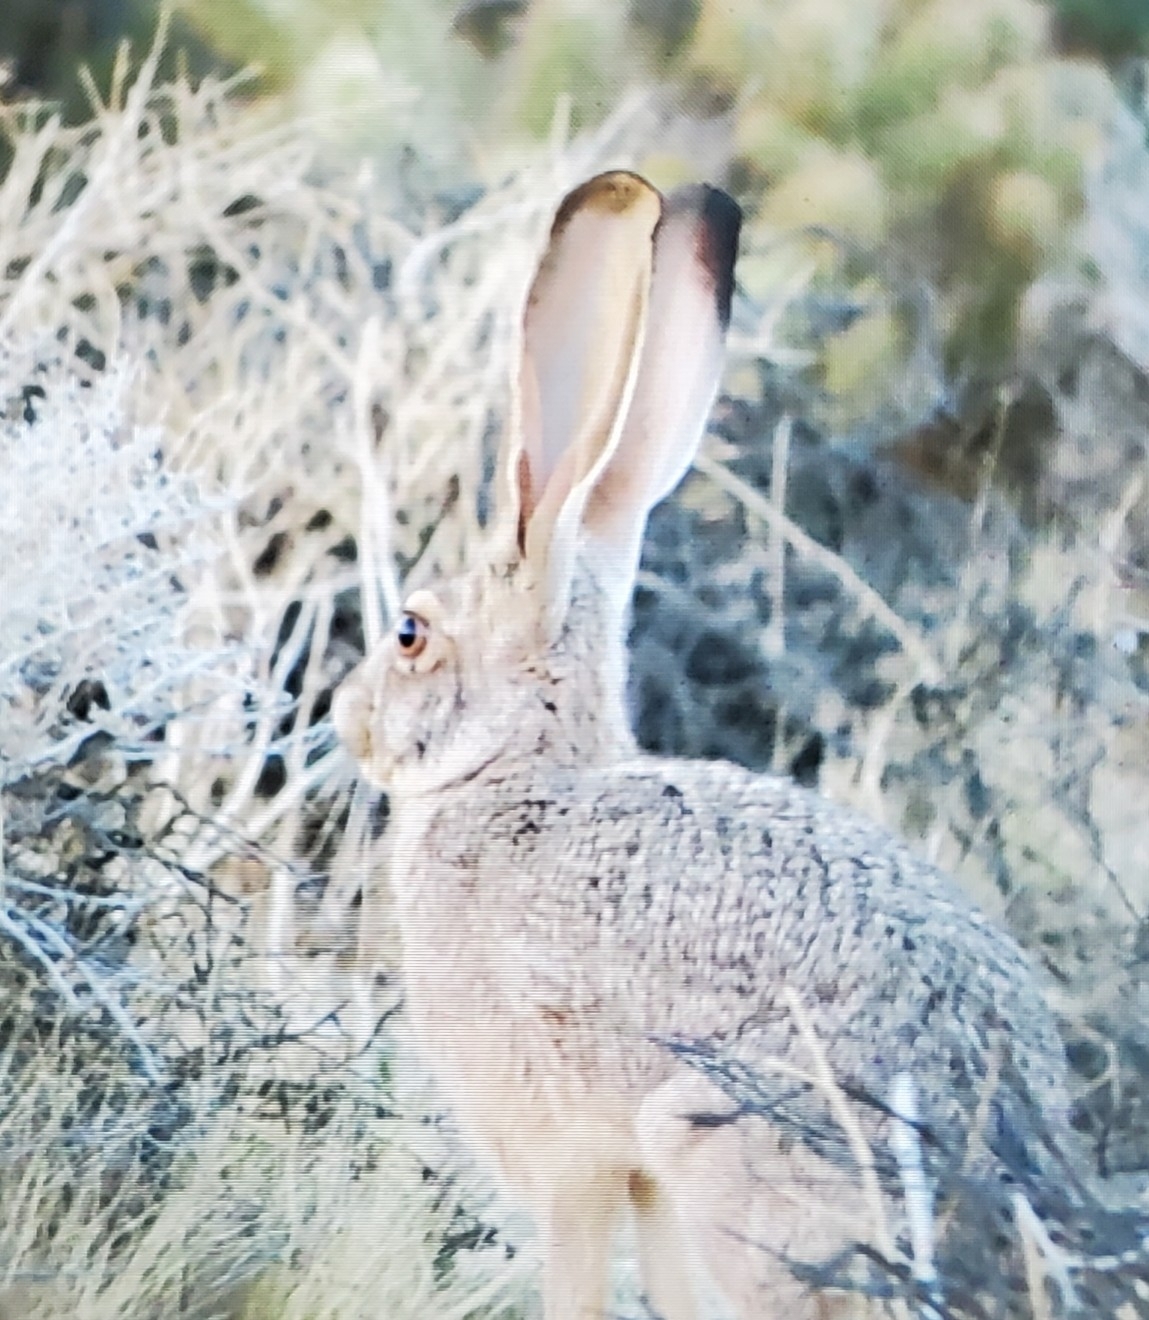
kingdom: Animalia
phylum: Chordata
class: Mammalia
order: Lagomorpha
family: Leporidae
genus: Lepus
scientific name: Lepus californicus
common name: Black-tailed jackrabbit
